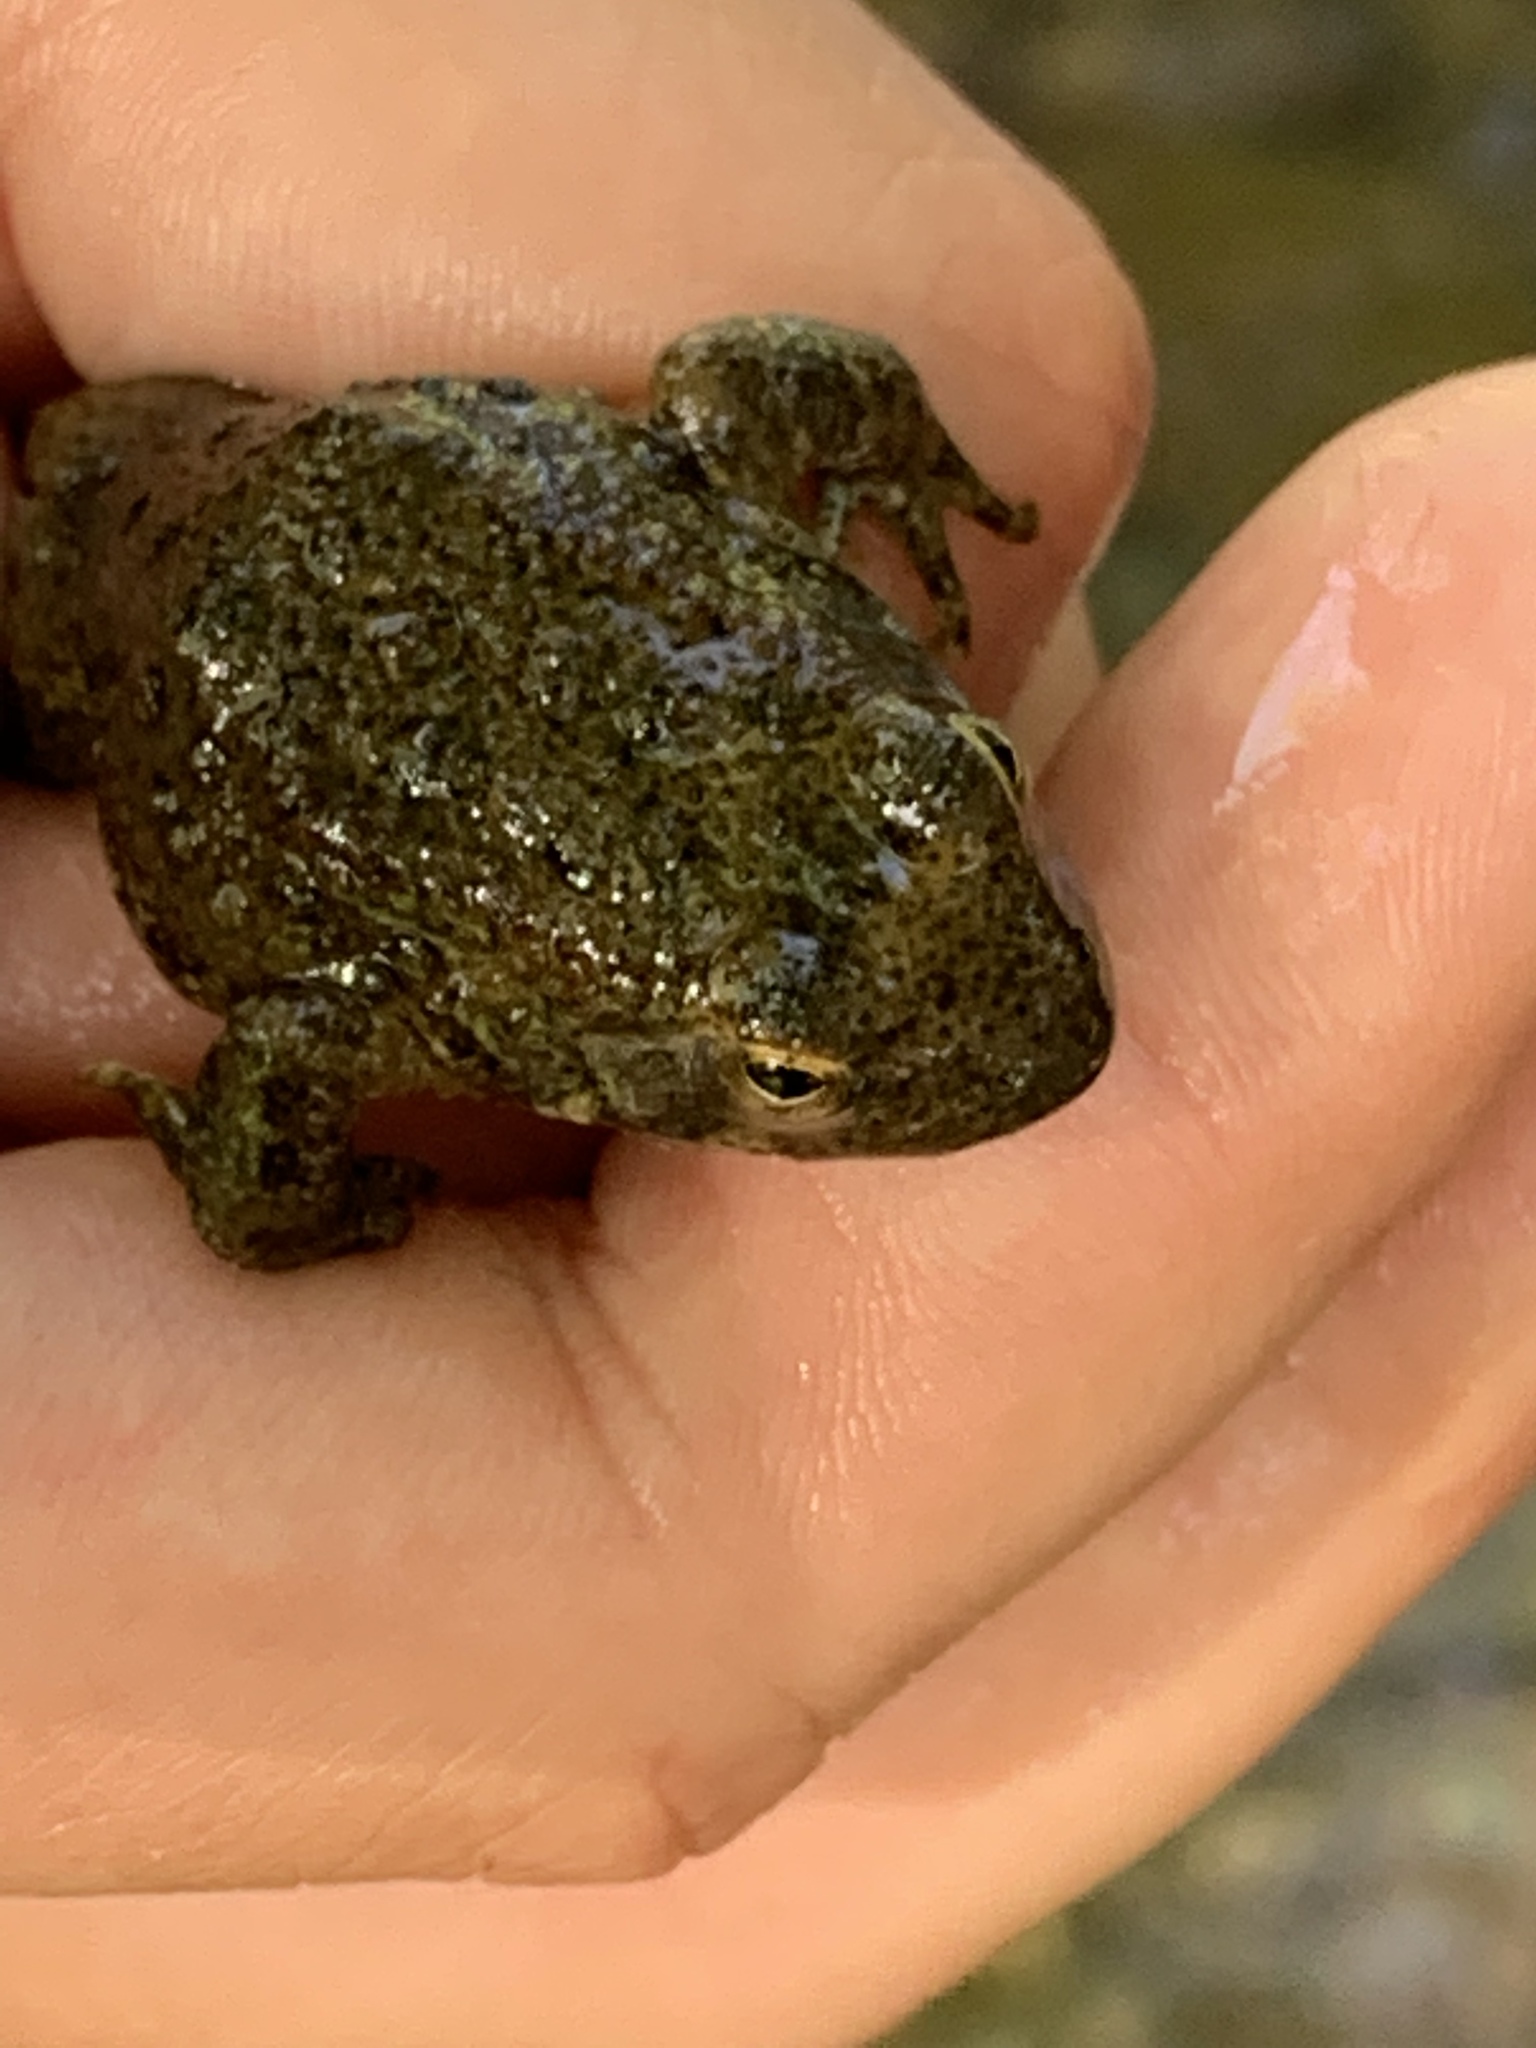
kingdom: Animalia
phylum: Chordata
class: Amphibia
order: Anura
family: Ranidae
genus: Rana
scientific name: Rana boylii
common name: Foothill yellow-legged frog
